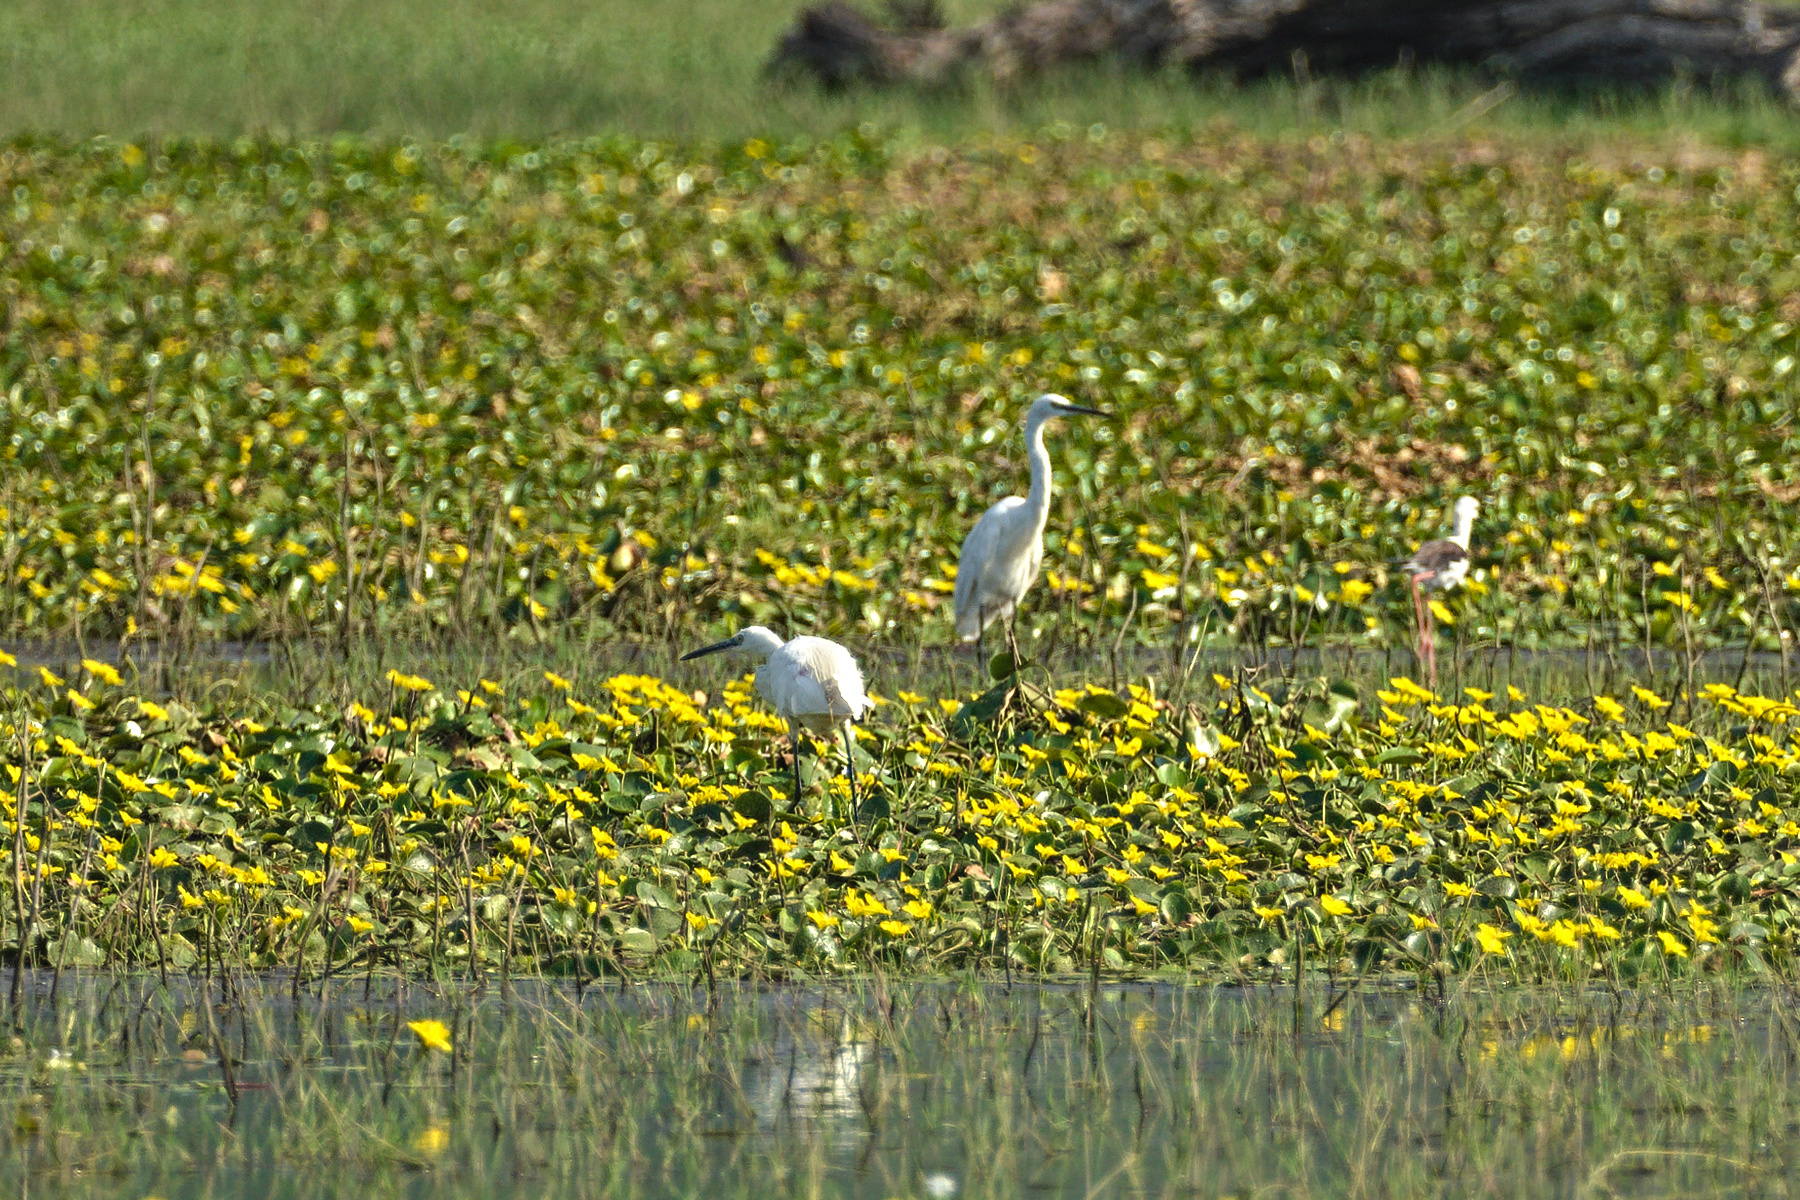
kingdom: Animalia
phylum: Chordata
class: Aves
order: Pelecaniformes
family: Ardeidae
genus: Egretta
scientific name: Egretta garzetta
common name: Little egret
